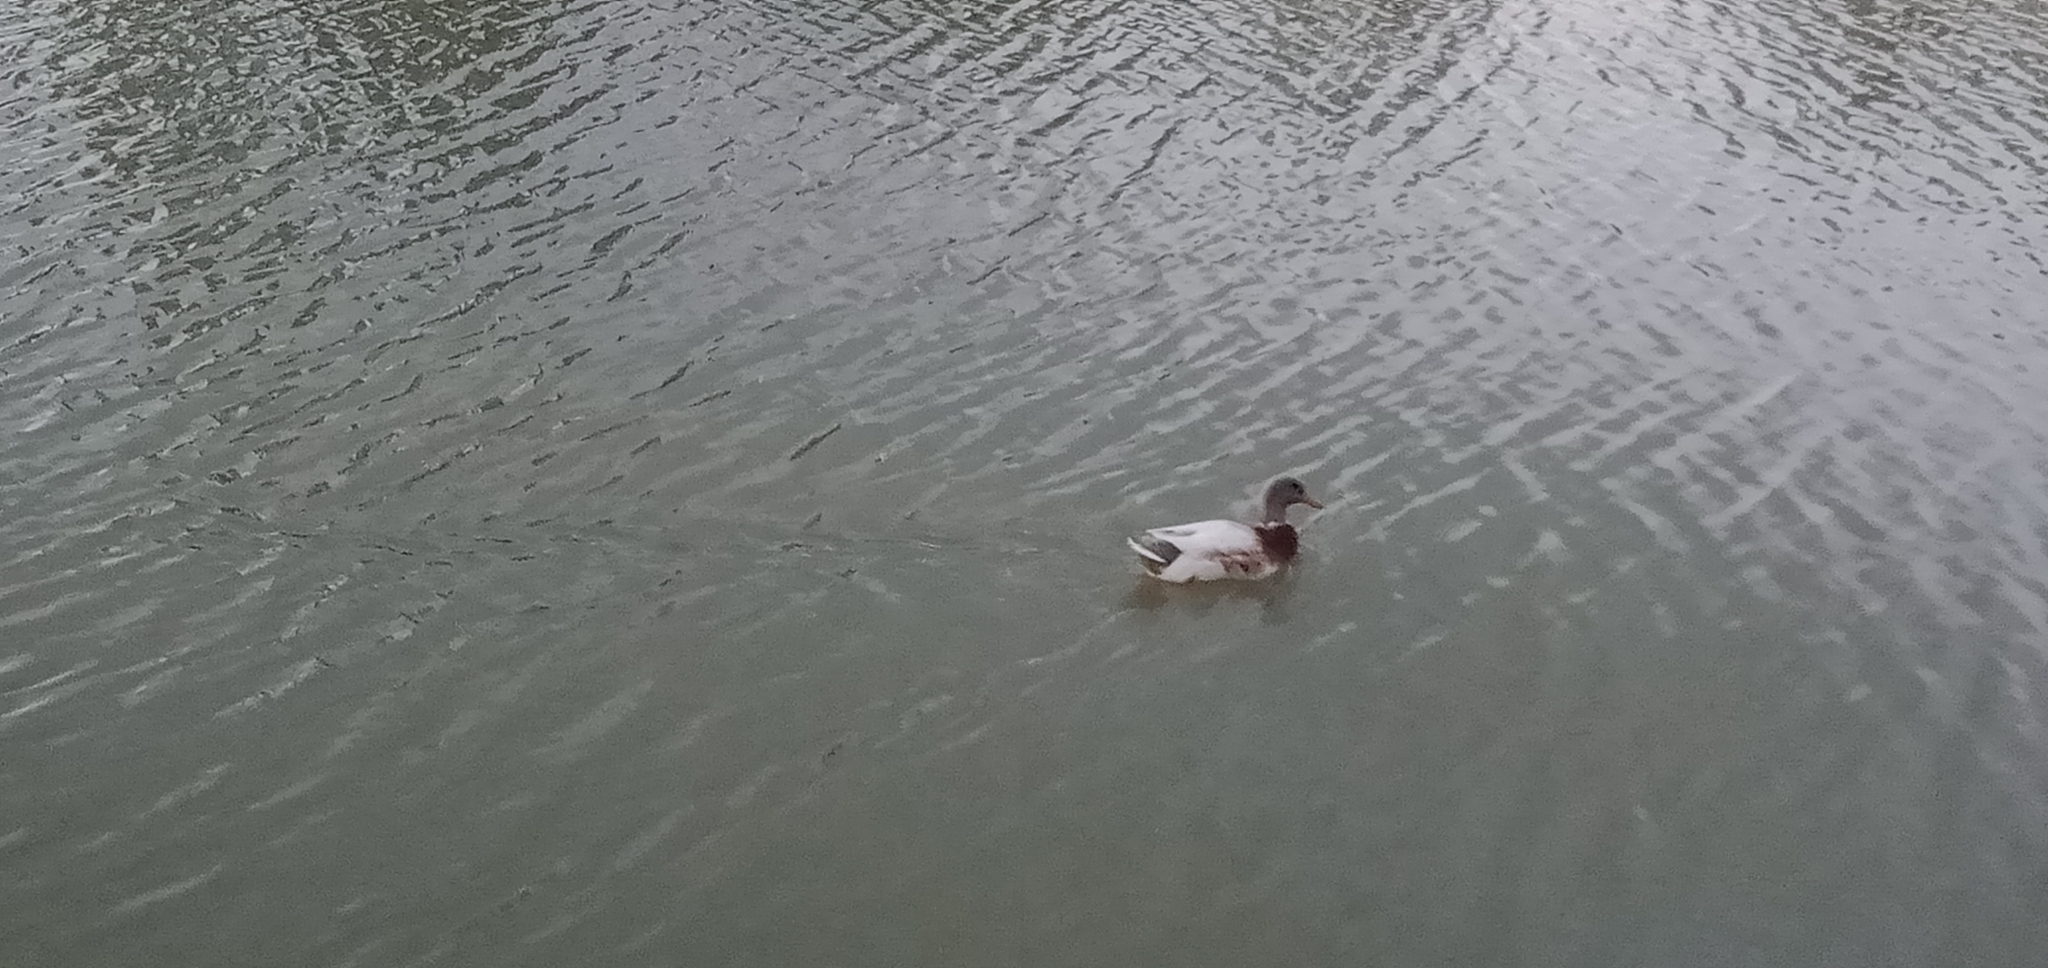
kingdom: Animalia
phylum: Chordata
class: Aves
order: Anseriformes
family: Anatidae
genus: Anas
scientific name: Anas platyrhynchos
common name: Mallard
